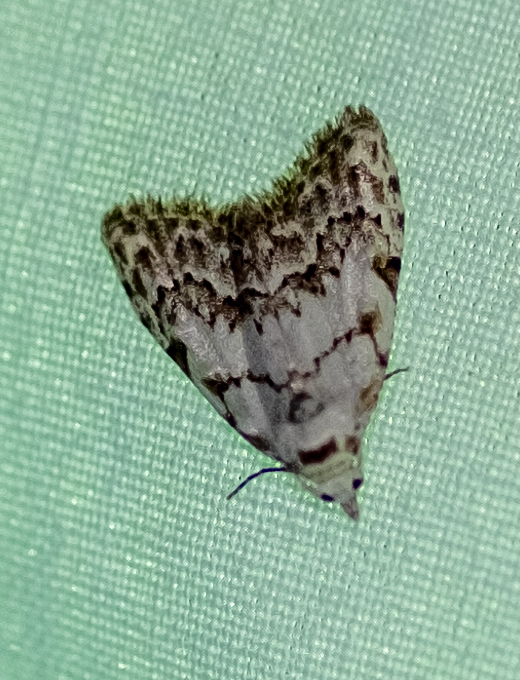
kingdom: Animalia
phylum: Arthropoda
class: Insecta
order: Lepidoptera
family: Nolidae
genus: Nola
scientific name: Nola confusalis
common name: Least black arches
